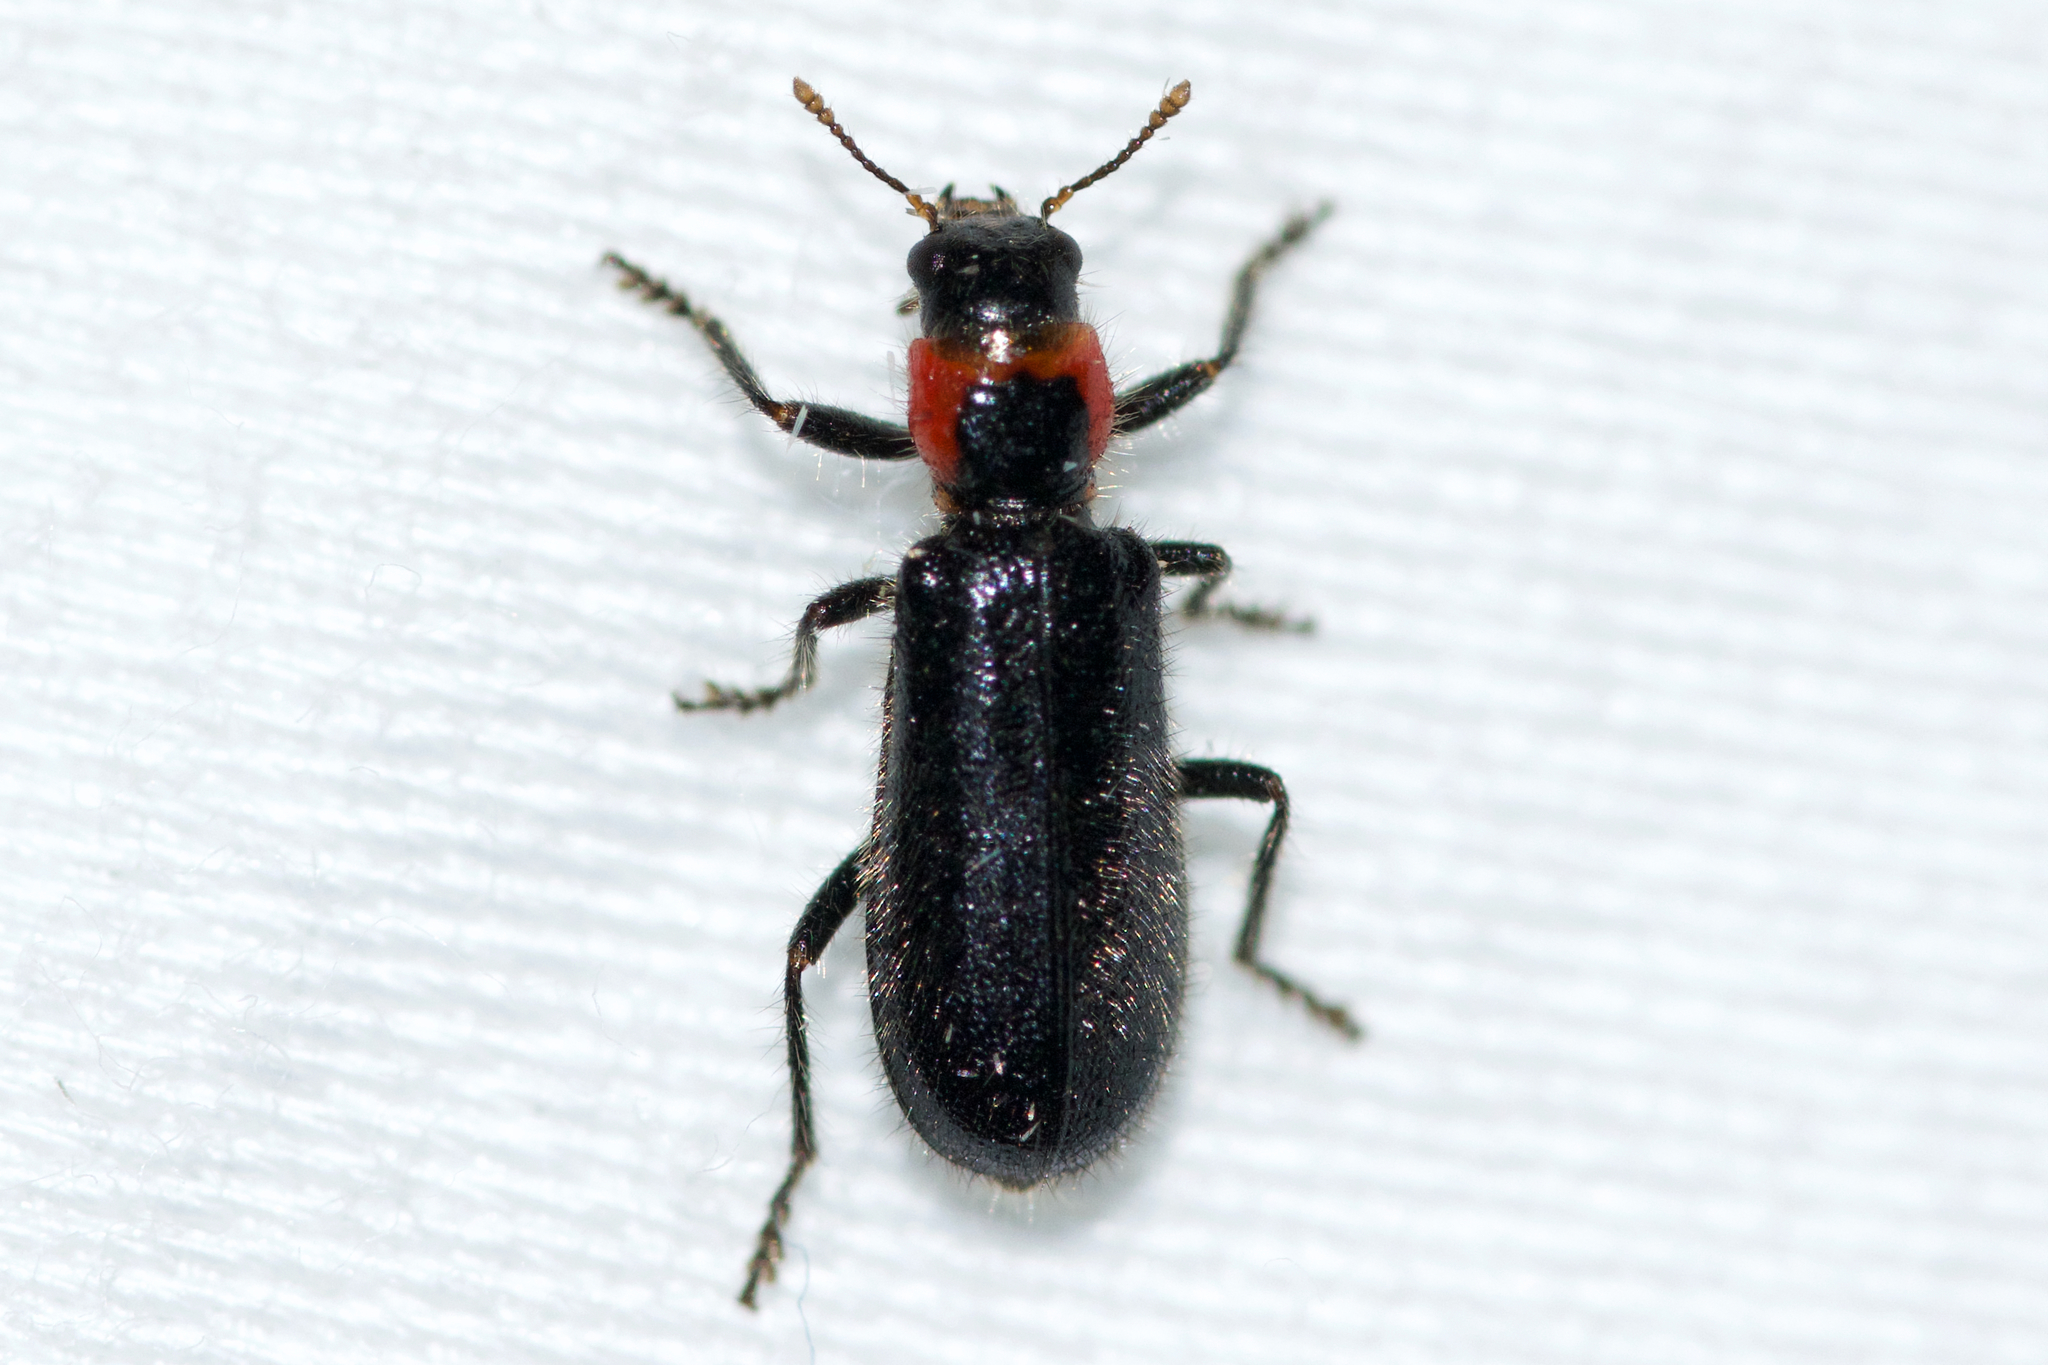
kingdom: Animalia
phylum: Arthropoda
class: Insecta
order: Coleoptera
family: Cleridae
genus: Placopterus
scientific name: Placopterus thoracicus
